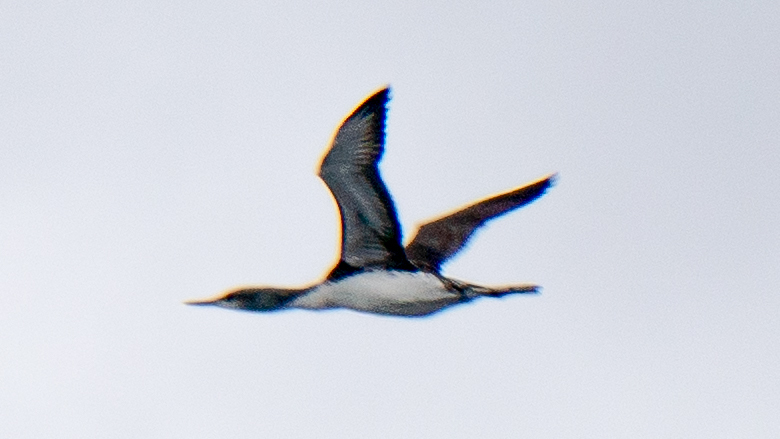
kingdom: Animalia
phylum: Chordata
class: Aves
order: Gaviiformes
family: Gaviidae
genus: Gavia
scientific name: Gavia stellata
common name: Red-throated loon
